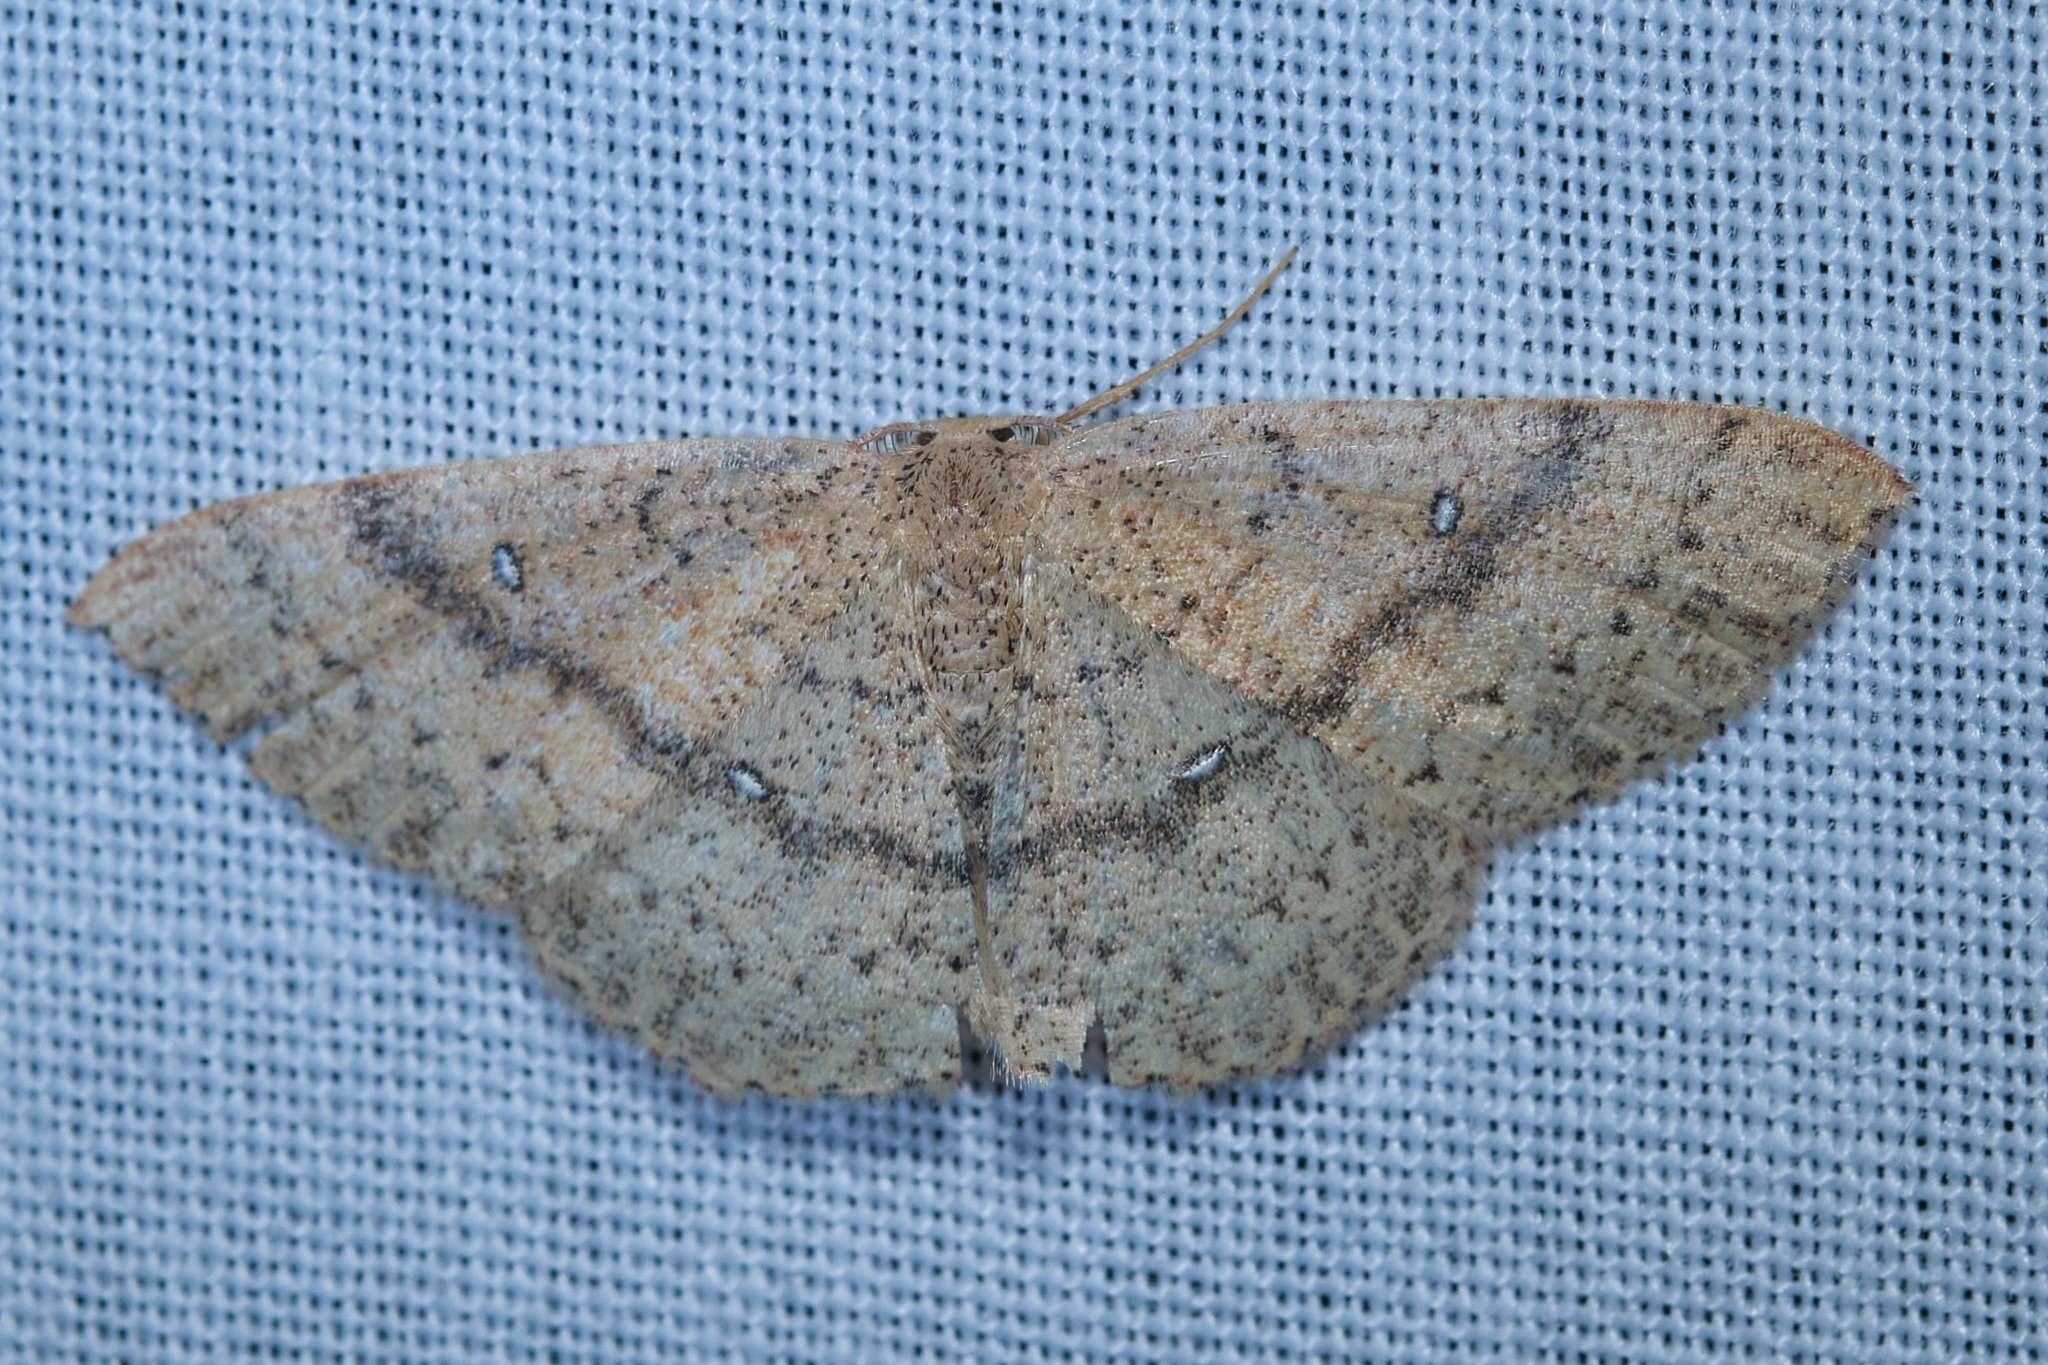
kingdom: Animalia
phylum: Arthropoda
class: Insecta
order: Lepidoptera
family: Geometridae
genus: Cyclophora
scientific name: Cyclophora dataria
